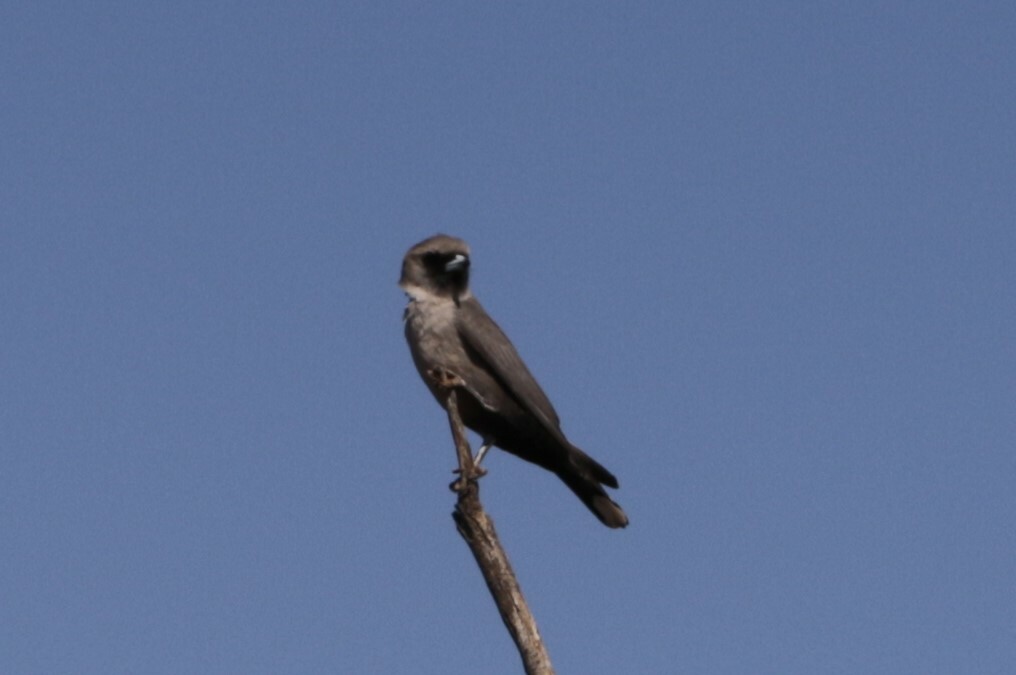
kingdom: Animalia
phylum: Chordata
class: Aves
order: Passeriformes
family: Artamidae
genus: Artamus
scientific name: Artamus cinereus
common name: Black-faced woodswallow
